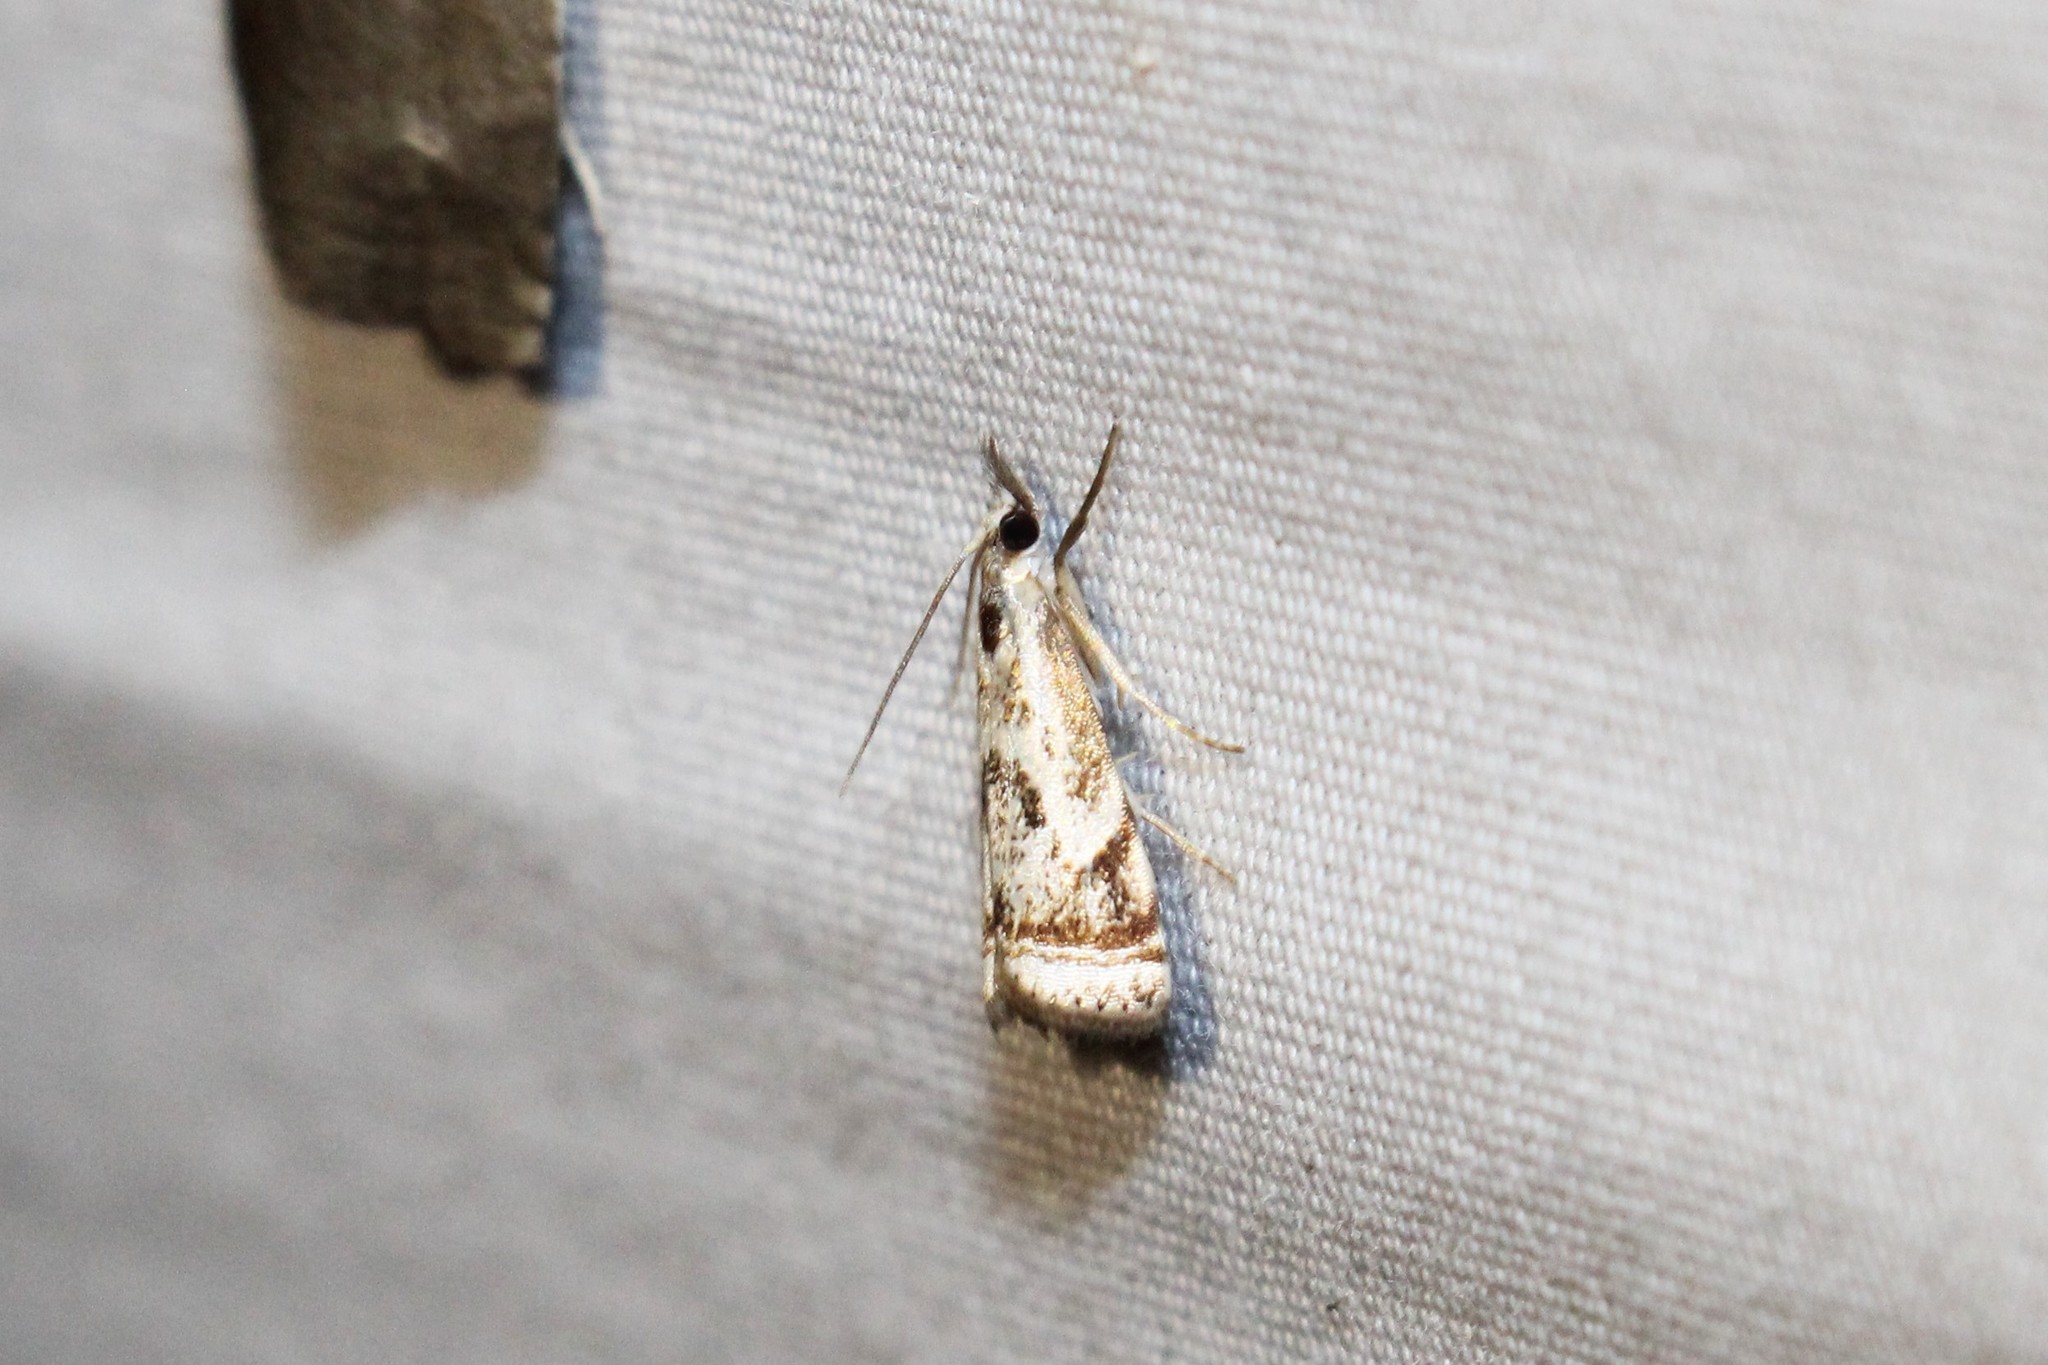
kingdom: Animalia
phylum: Arthropoda
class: Insecta
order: Lepidoptera
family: Crambidae
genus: Microcrambus
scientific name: Microcrambus elegans
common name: Elegant grass-veneer
